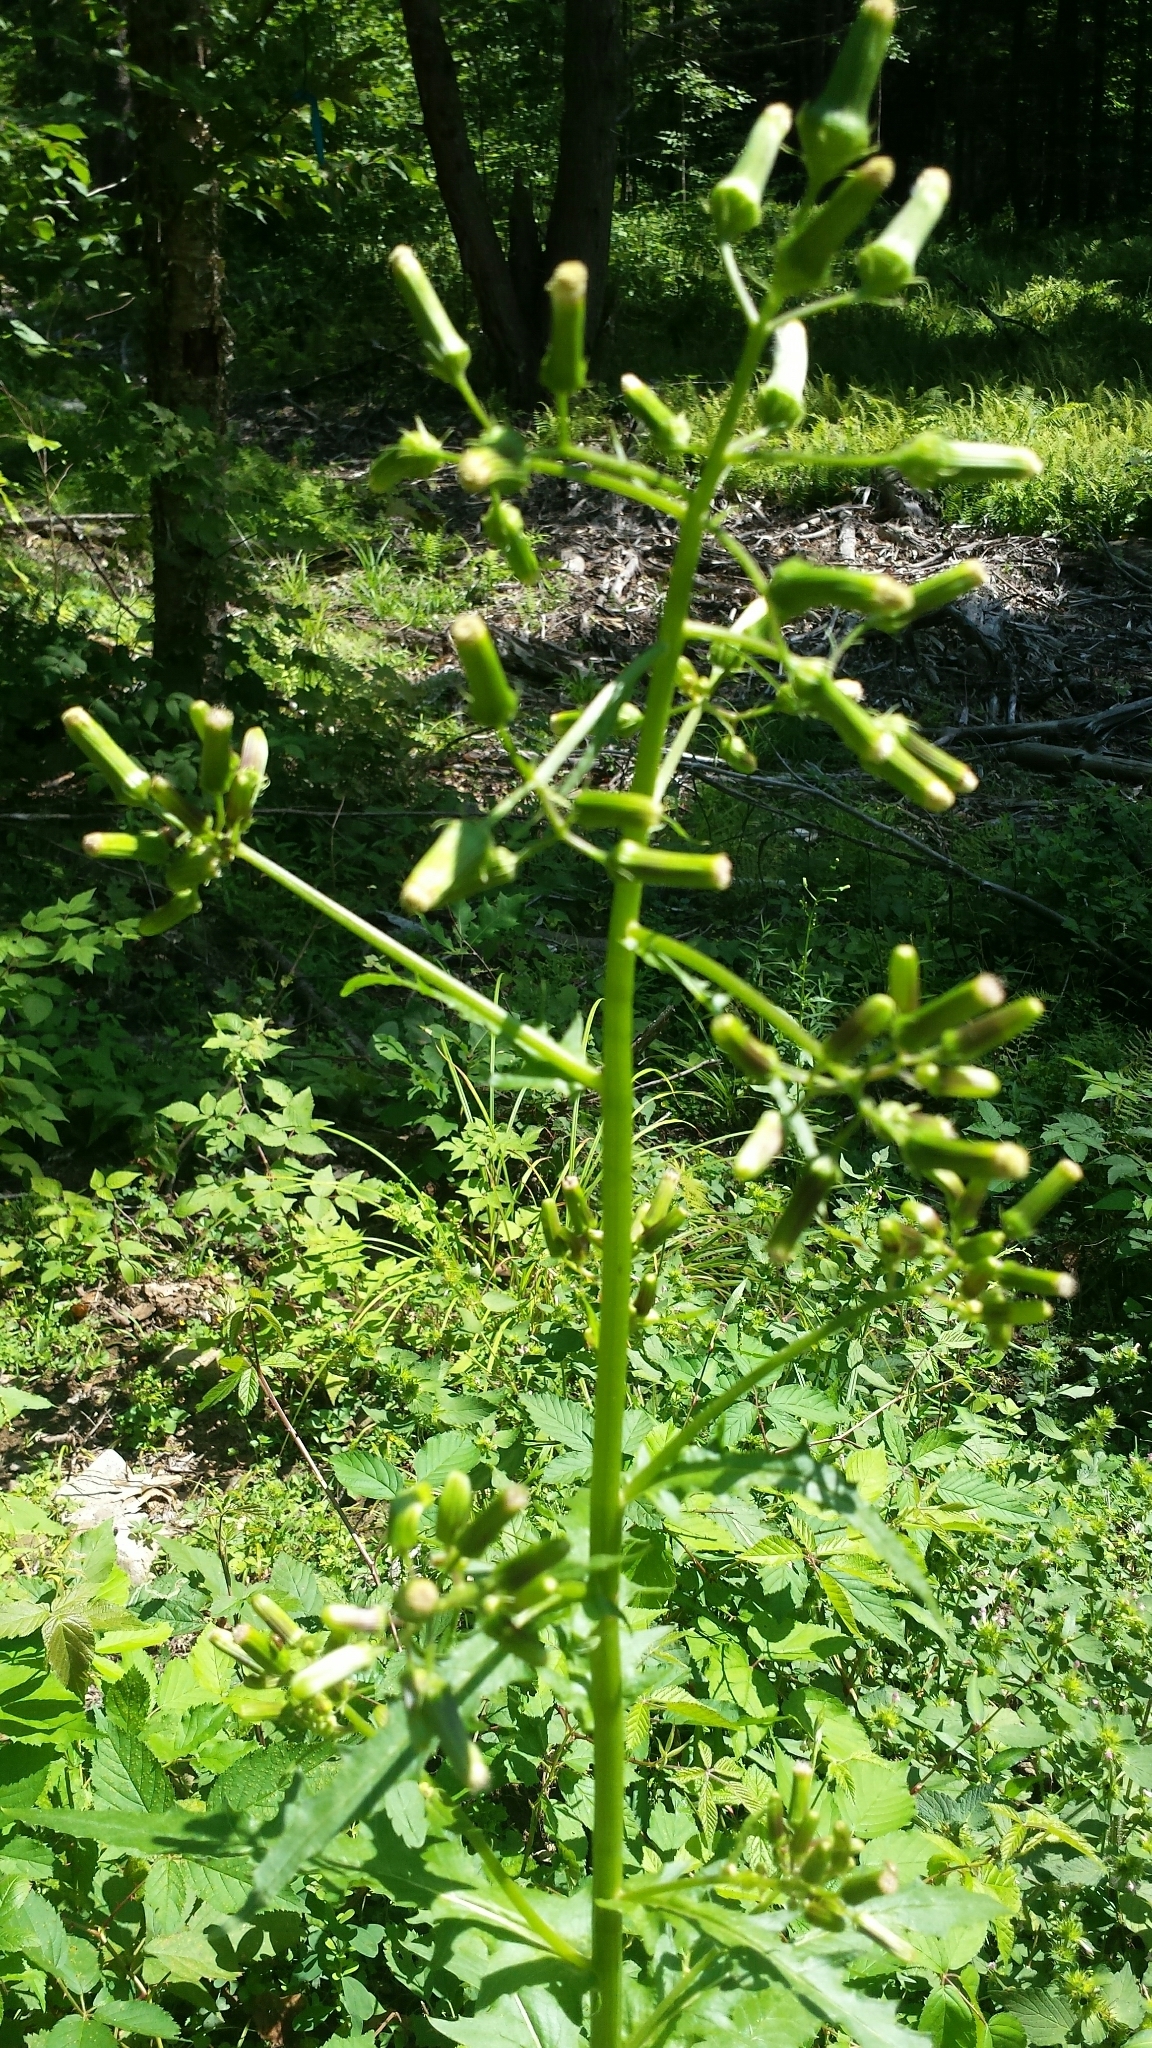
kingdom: Plantae
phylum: Tracheophyta
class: Magnoliopsida
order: Asterales
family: Asteraceae
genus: Erechtites
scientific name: Erechtites hieraciifolius
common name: American burnweed
